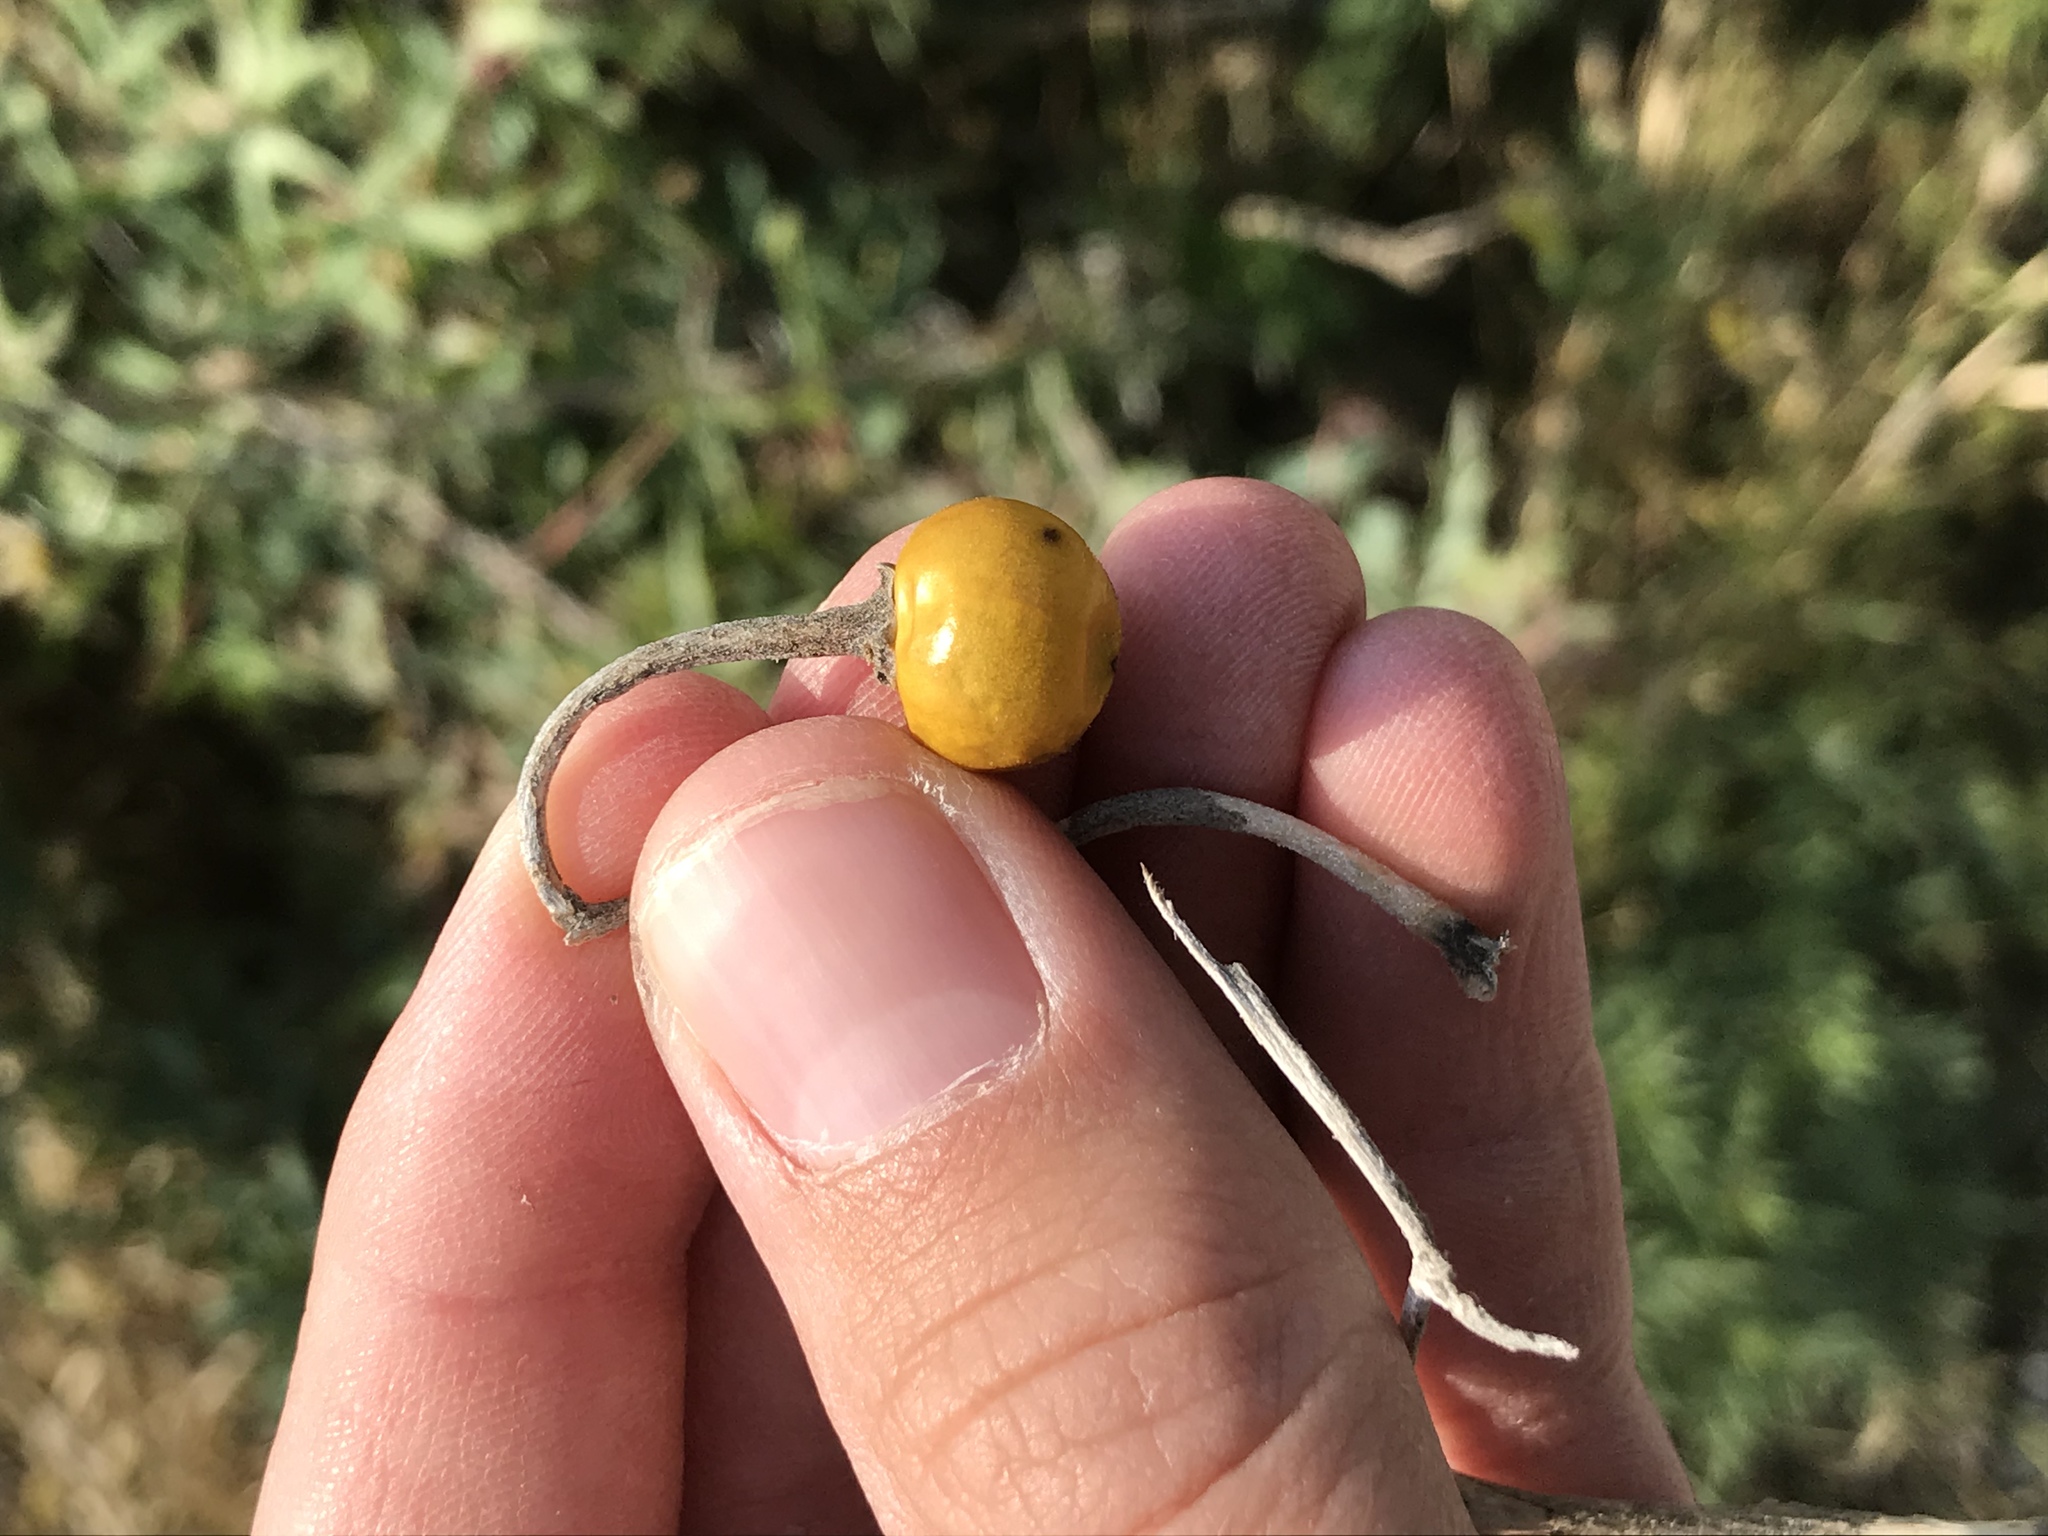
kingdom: Plantae
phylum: Tracheophyta
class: Magnoliopsida
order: Solanales
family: Solanaceae
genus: Solanum
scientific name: Solanum elaeagnifolium
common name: Silverleaf nightshade
